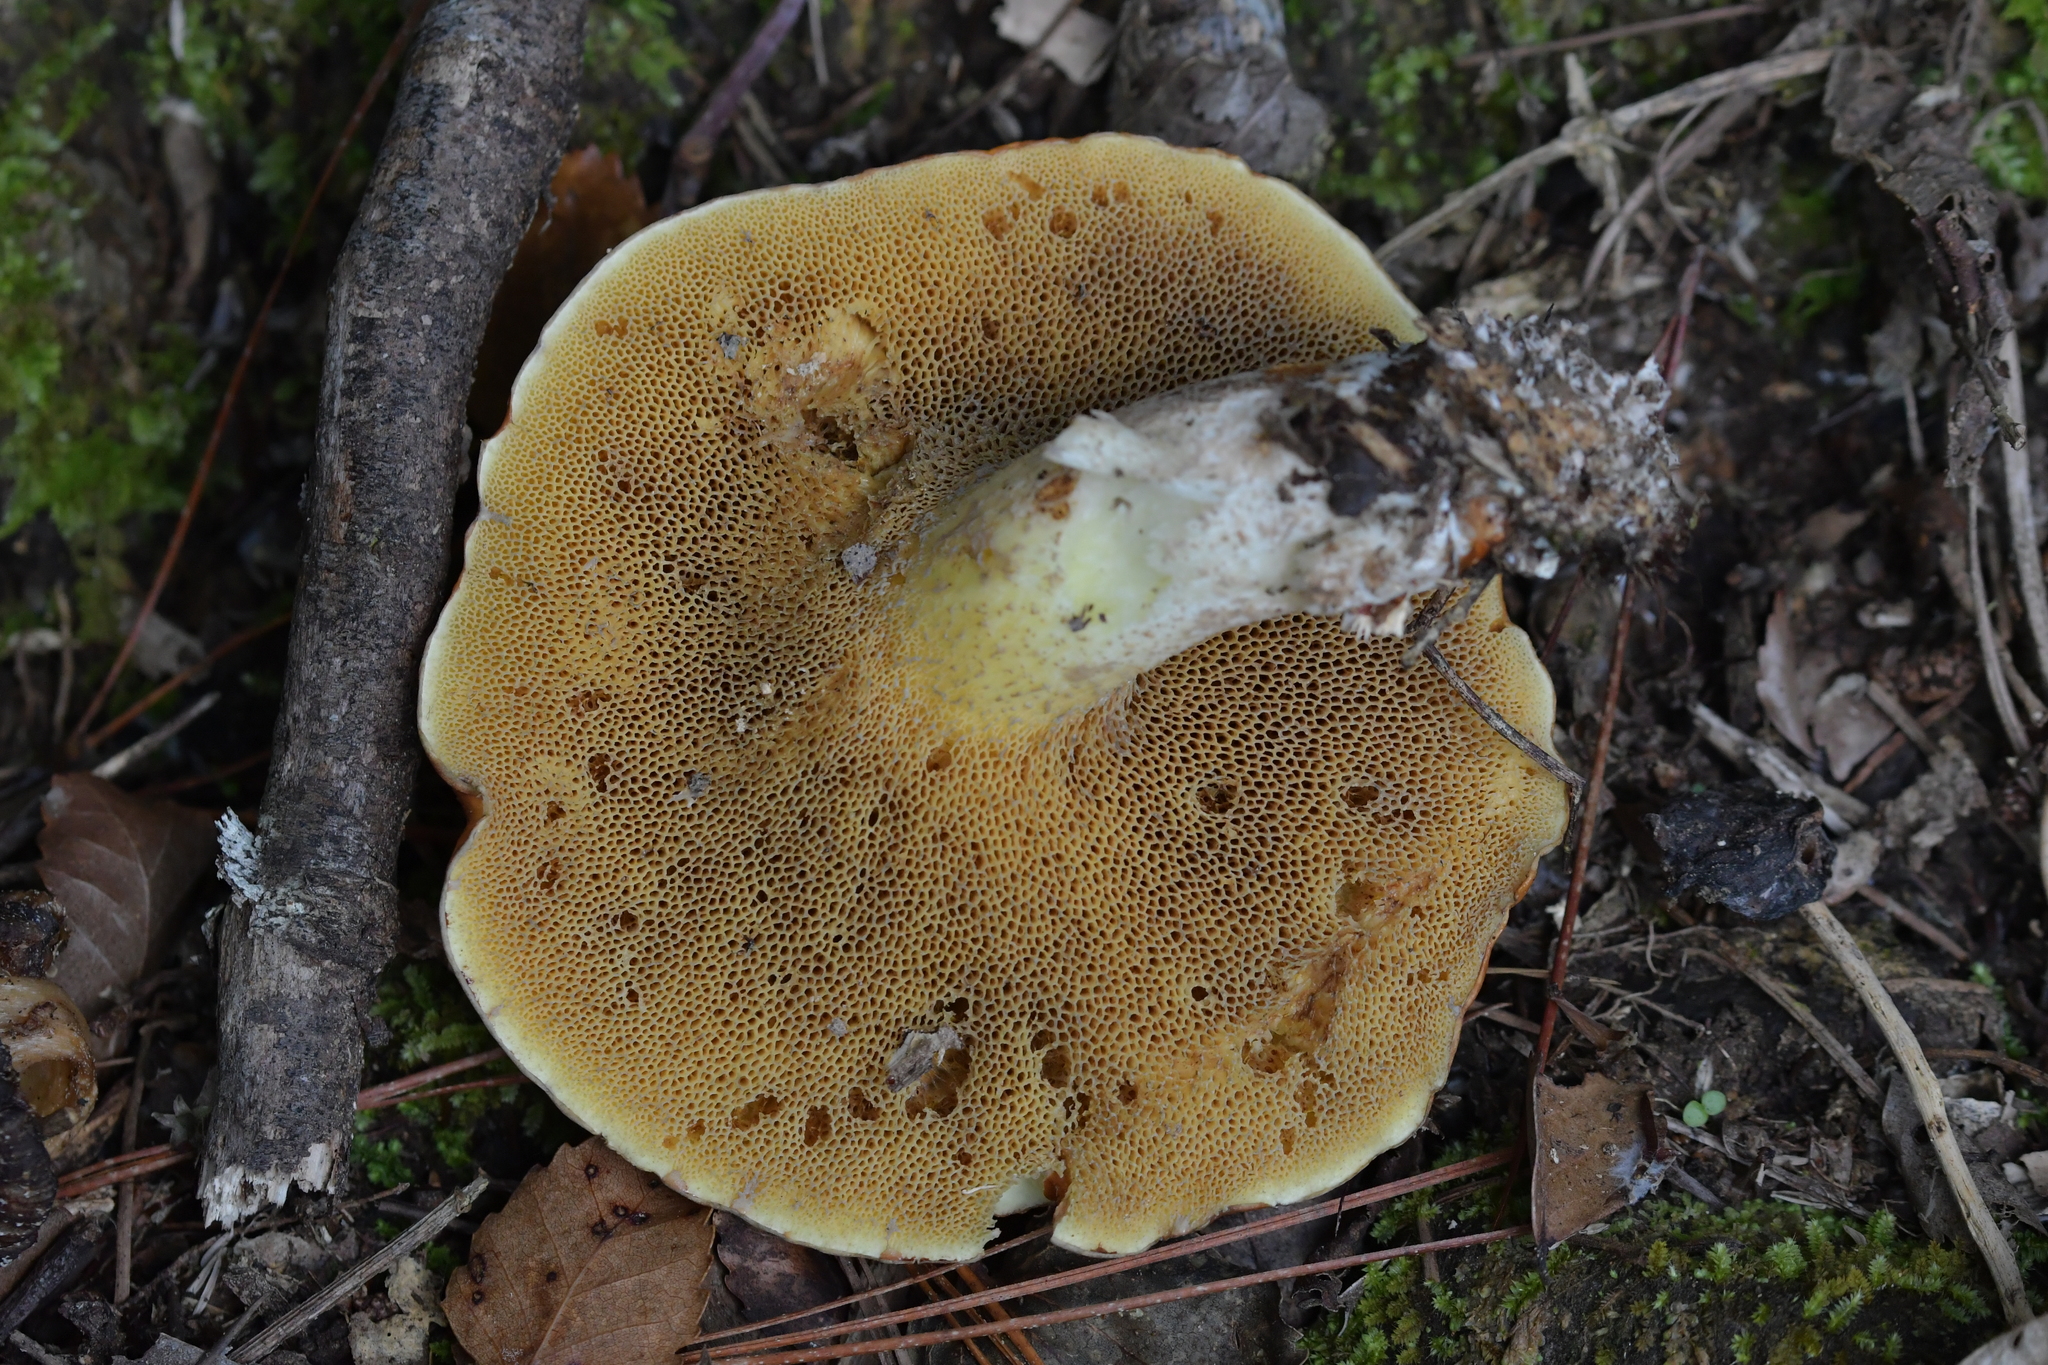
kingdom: Fungi
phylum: Basidiomycota
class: Agaricomycetes
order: Boletales
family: Suillaceae
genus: Suillus
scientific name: Suillus granulatus
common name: Weeping bolete
